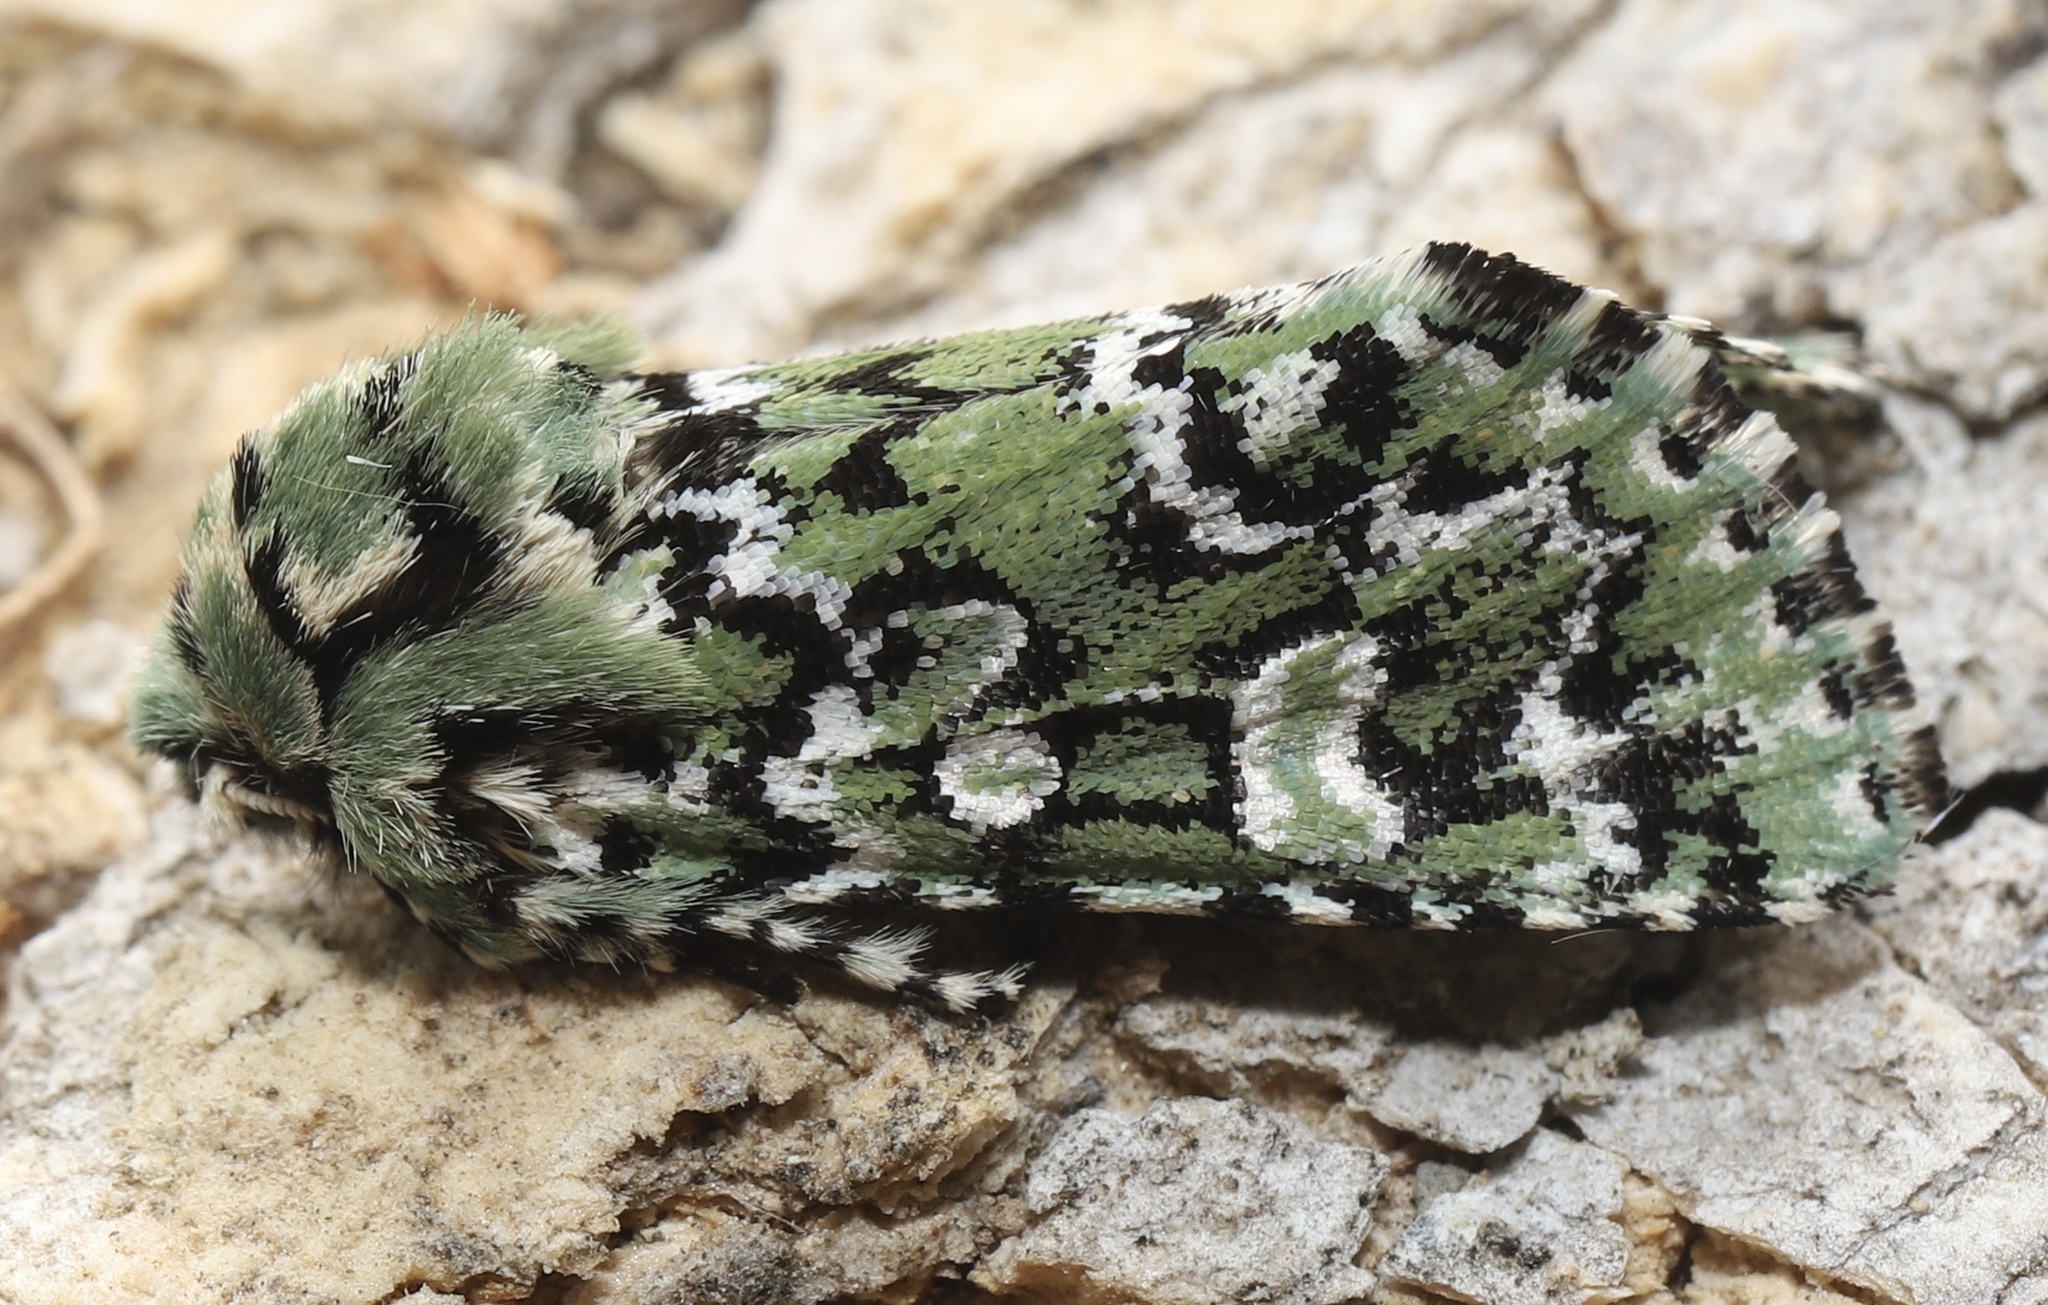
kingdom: Animalia
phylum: Arthropoda
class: Insecta
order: Lepidoptera
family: Noctuidae
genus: Feralia
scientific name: Feralia jocosa
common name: Joker
